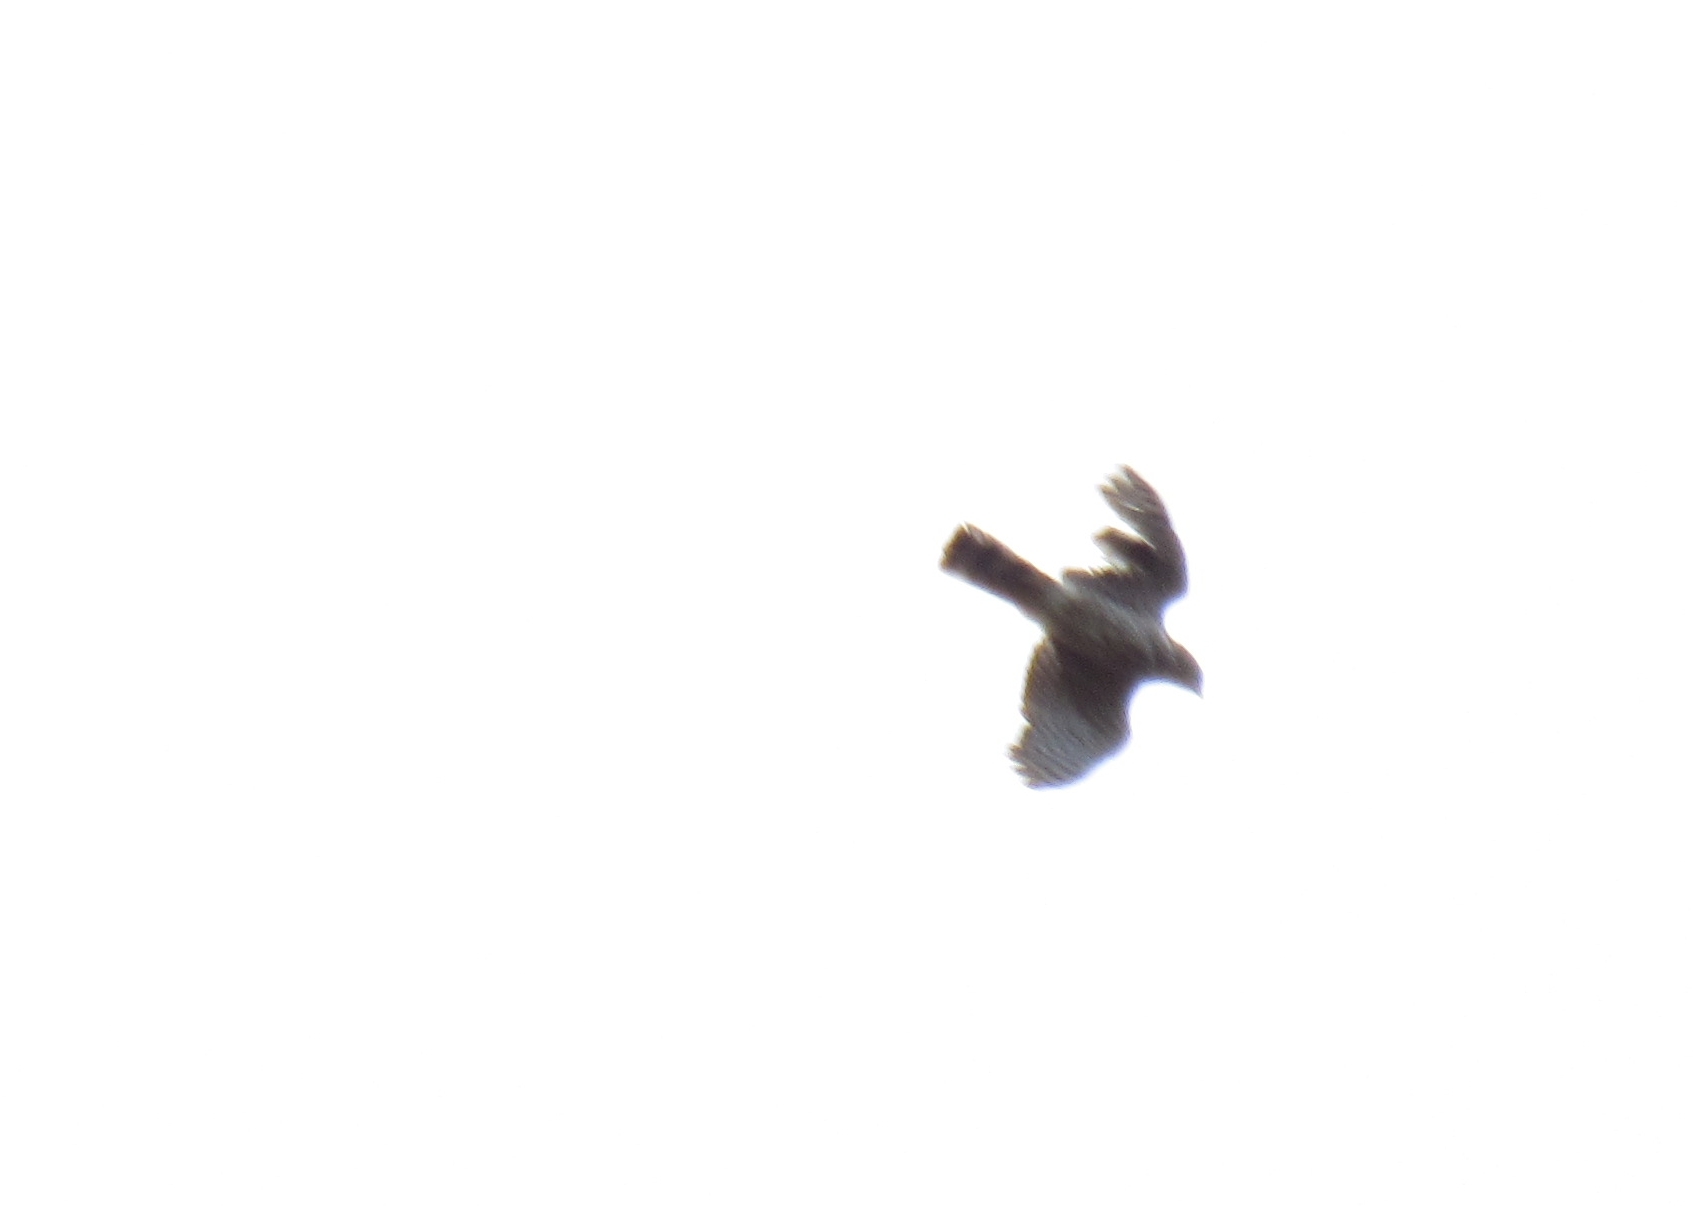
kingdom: Animalia
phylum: Chordata
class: Aves
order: Accipitriformes
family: Accipitridae
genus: Accipiter
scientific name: Accipiter striatus
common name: Sharp-shinned hawk
